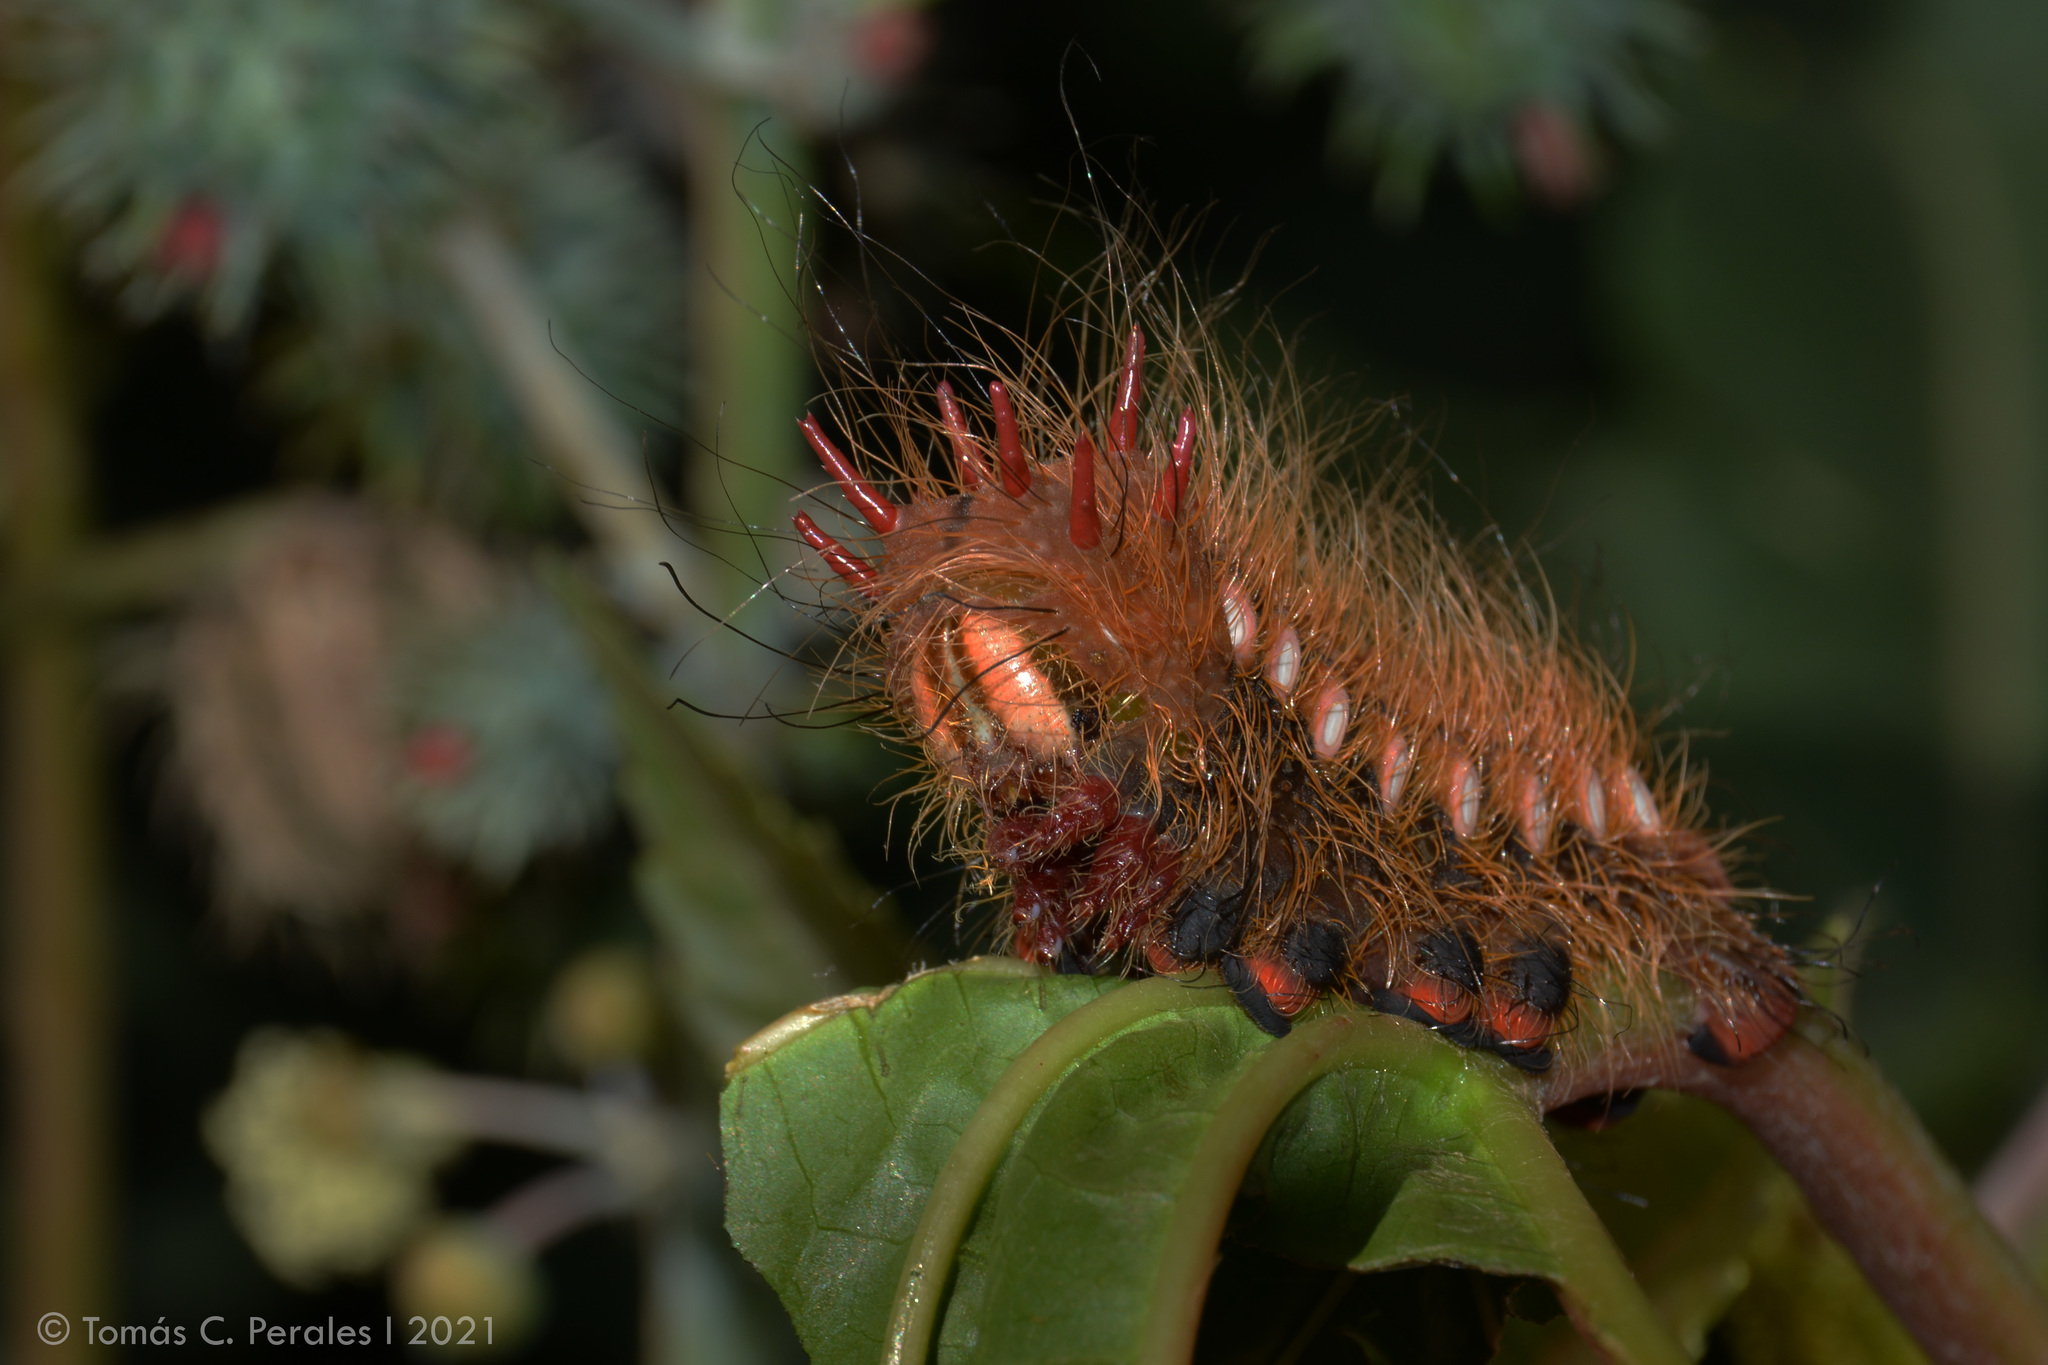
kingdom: Animalia
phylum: Arthropoda
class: Insecta
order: Lepidoptera
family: Saturniidae
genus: Eacles
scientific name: Eacles imperialis
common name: Imperial moth
